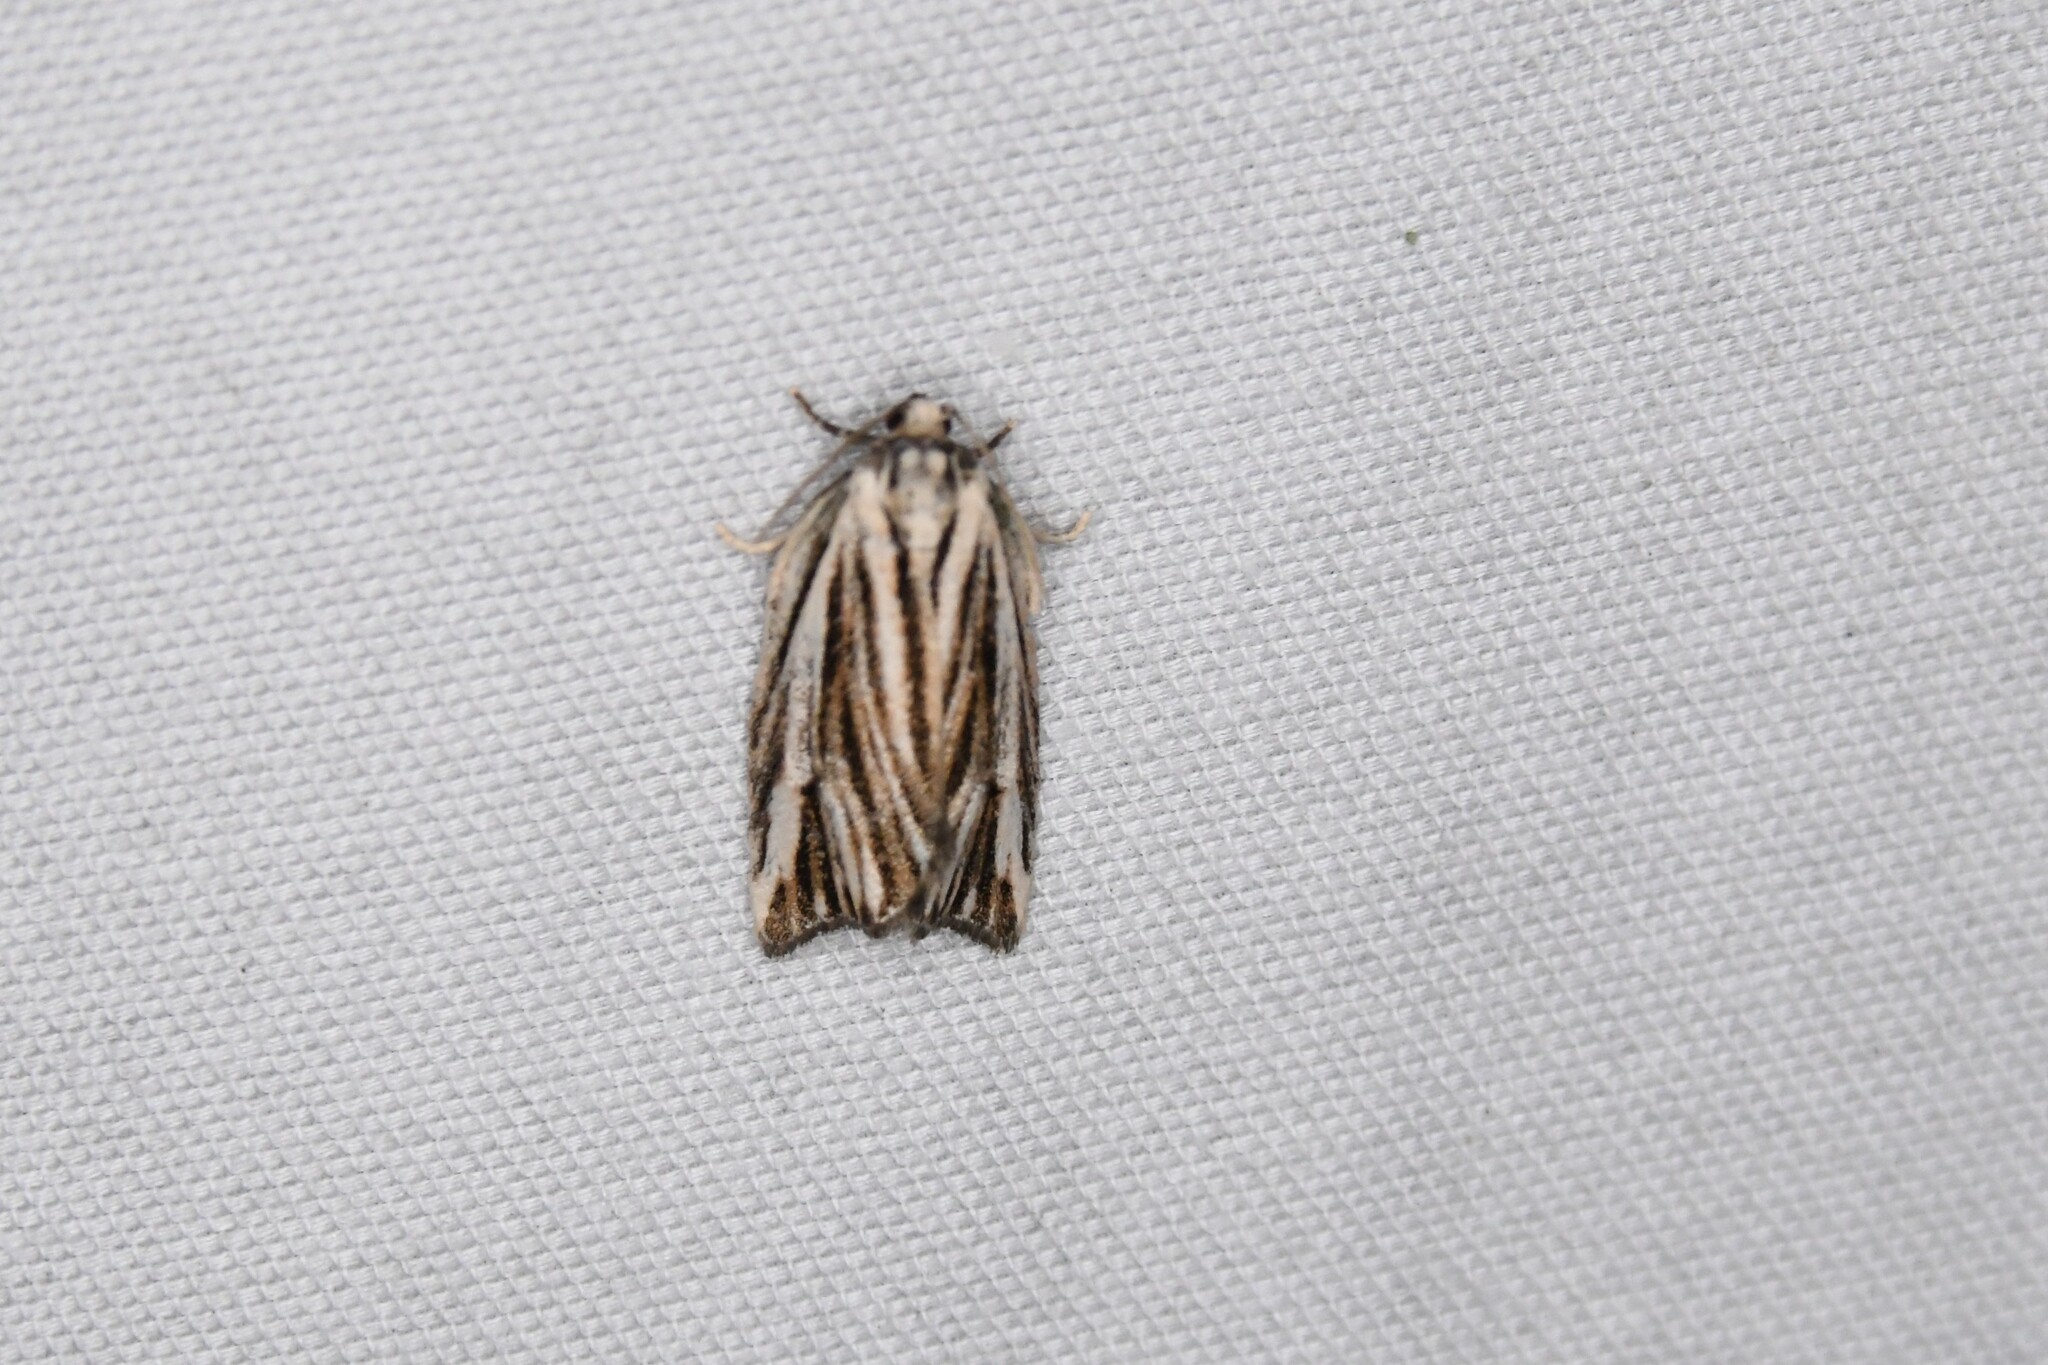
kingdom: Animalia
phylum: Arthropoda
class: Insecta
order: Lepidoptera
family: Tortricidae
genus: Archips
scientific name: Archips strianus
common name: Striated tortrix moth
